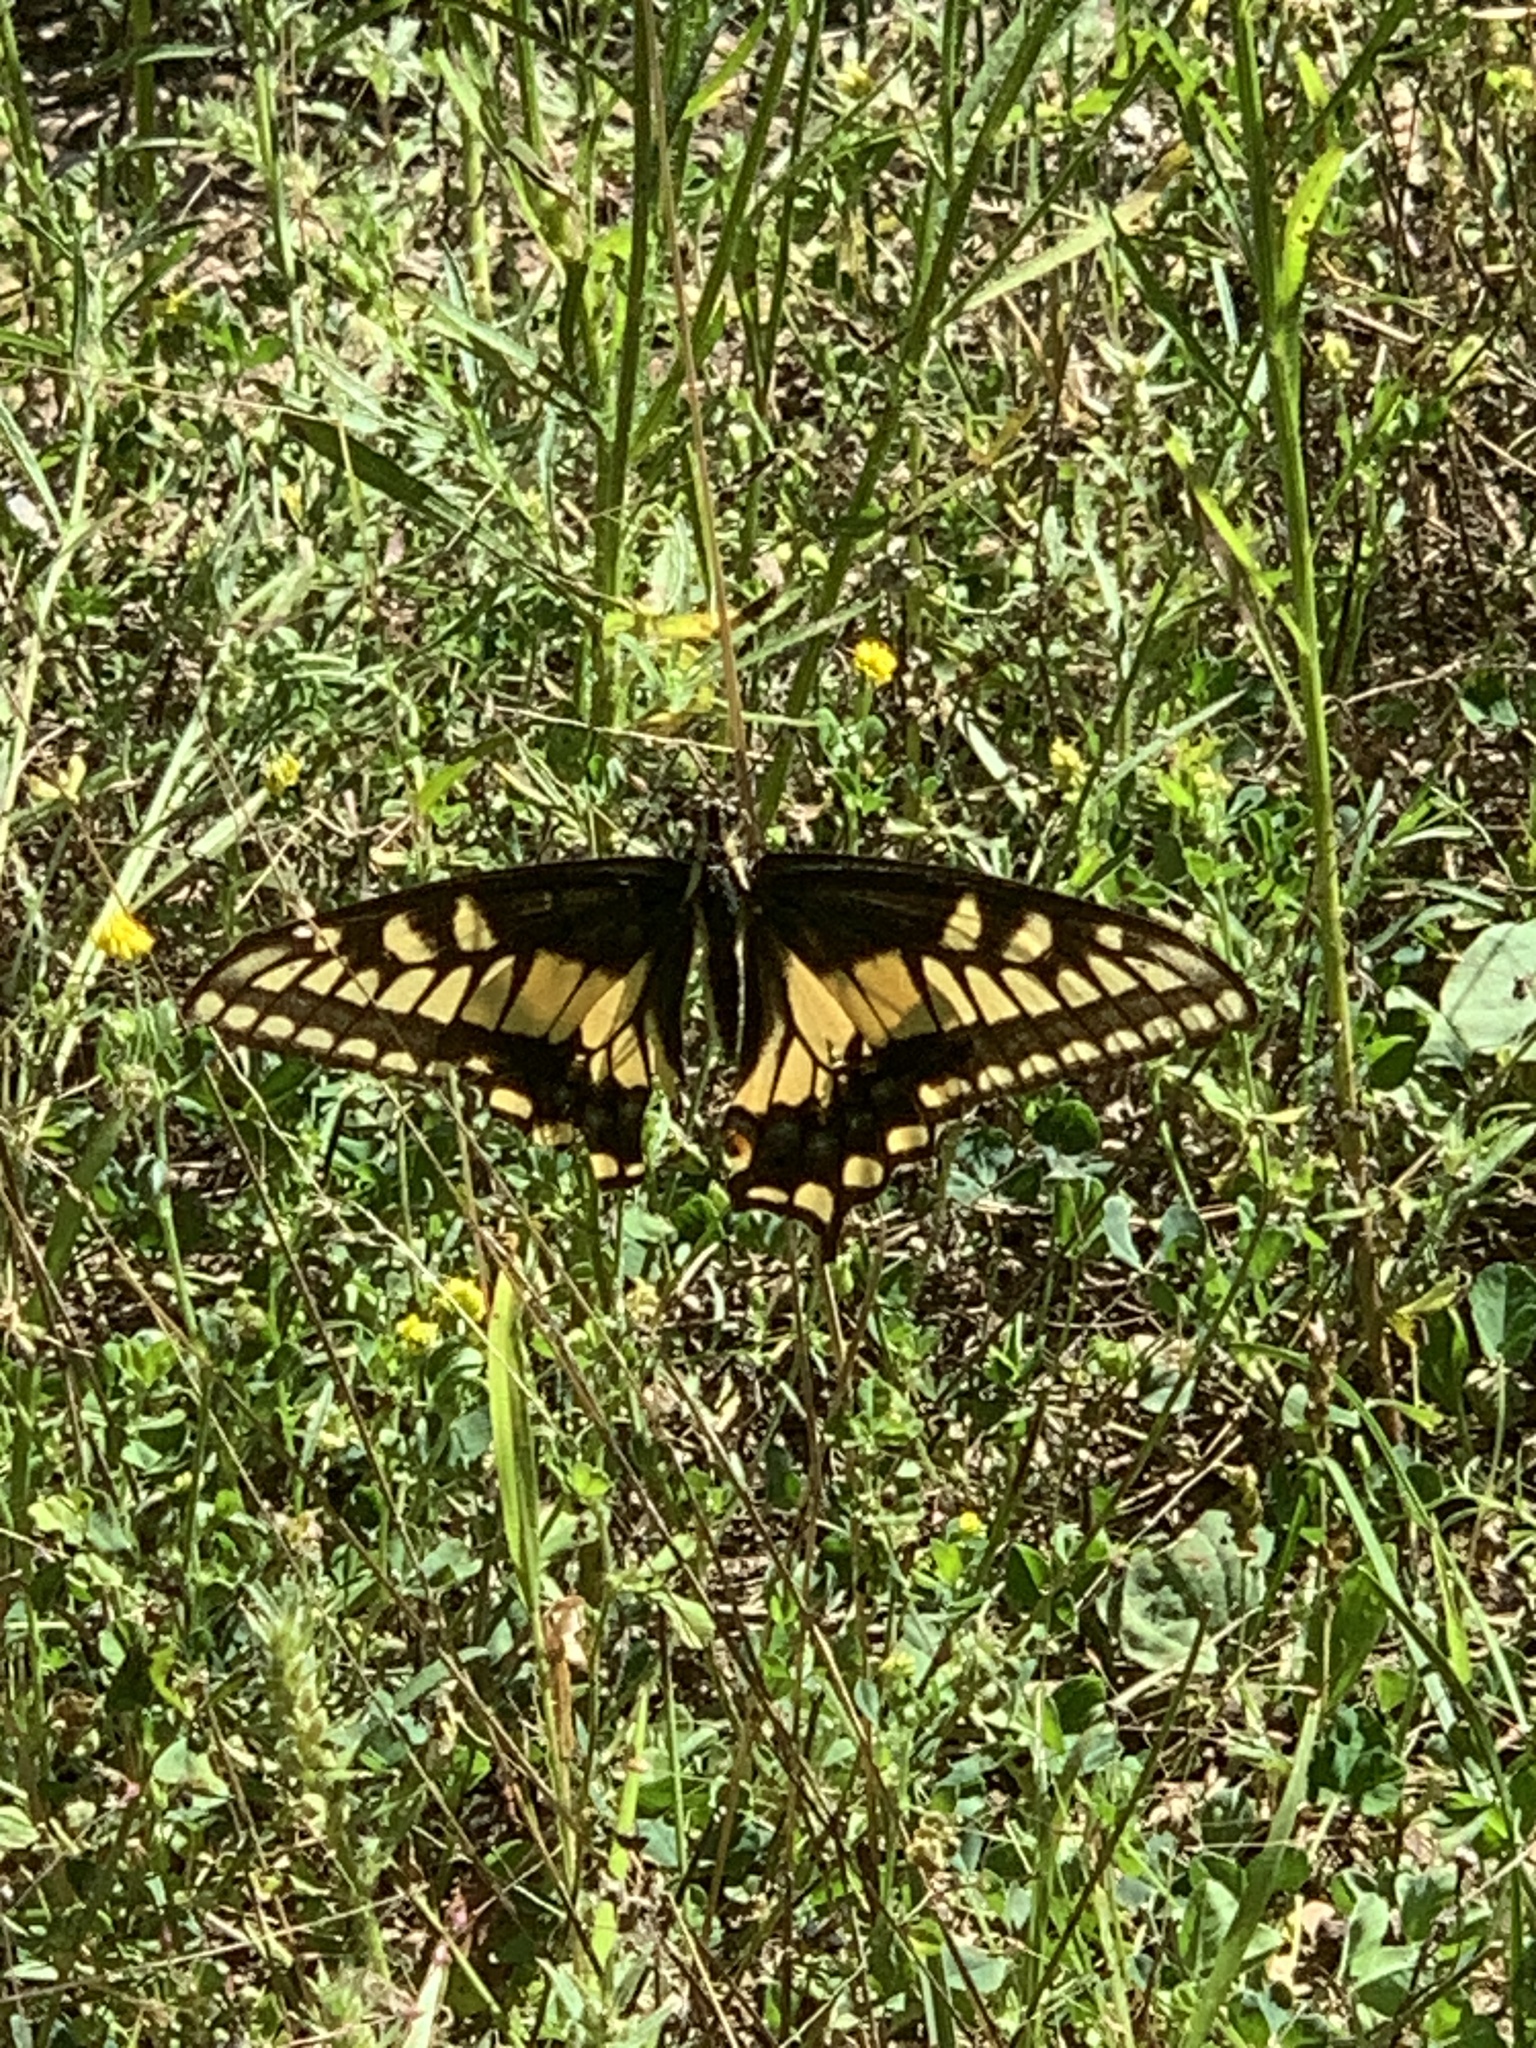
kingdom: Animalia
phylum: Arthropoda
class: Insecta
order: Lepidoptera
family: Papilionidae
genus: Papilio
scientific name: Papilio
